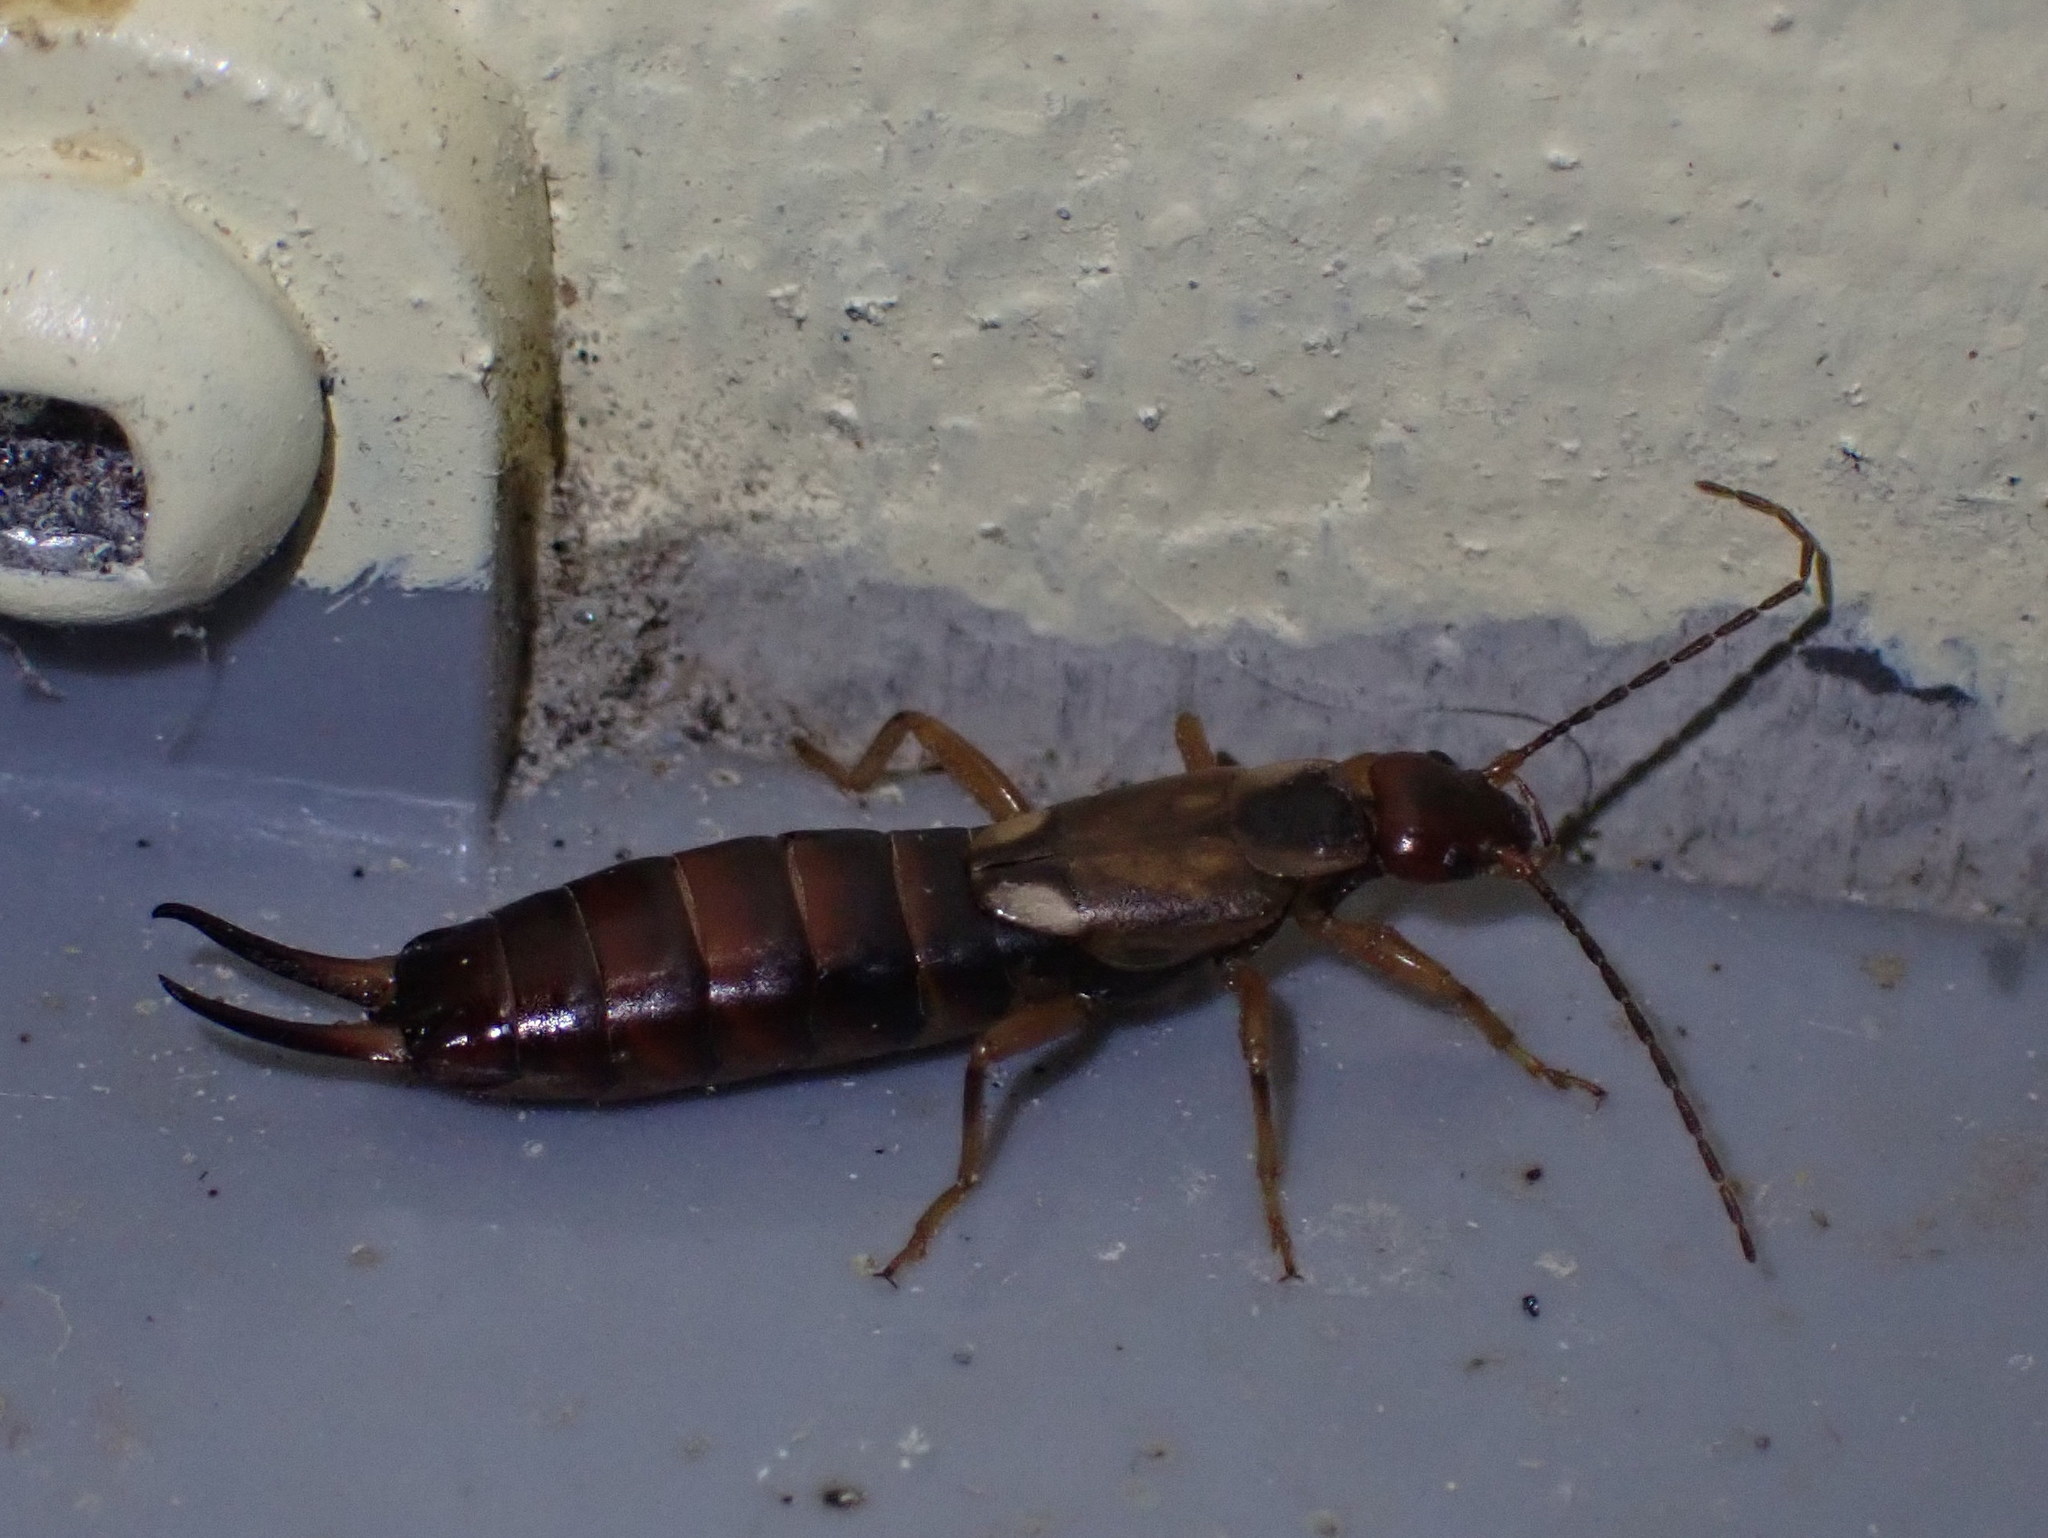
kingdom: Animalia
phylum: Arthropoda
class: Insecta
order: Dermaptera
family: Forficulidae
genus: Forficula
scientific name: Forficula
